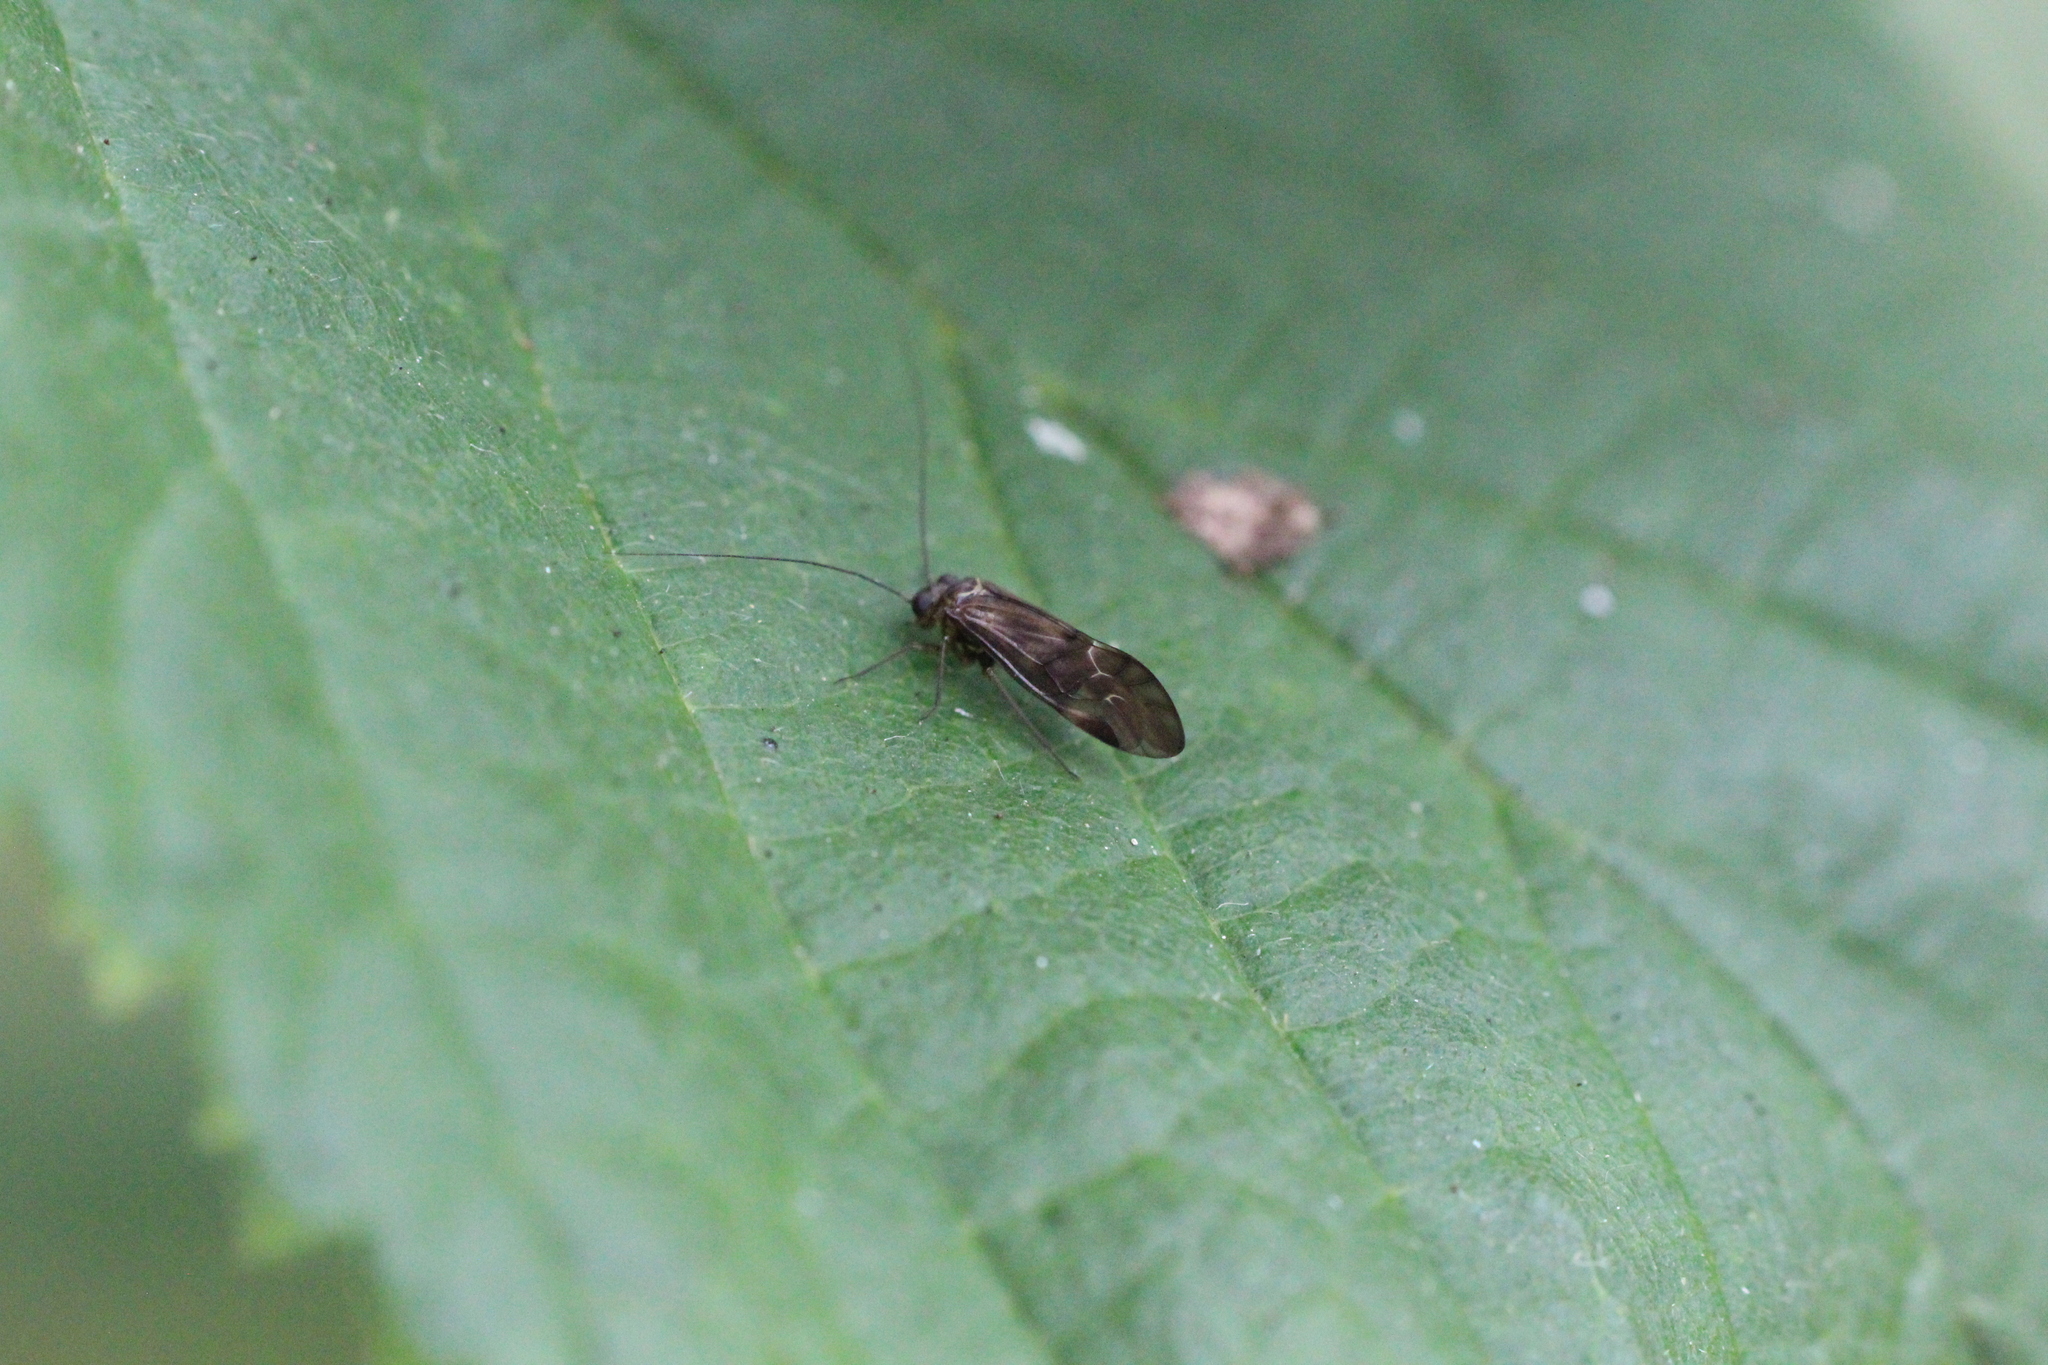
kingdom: Animalia
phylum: Arthropoda
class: Insecta
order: Psocodea
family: Psocidae
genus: Metylophorus
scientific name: Metylophorus nebulosus
